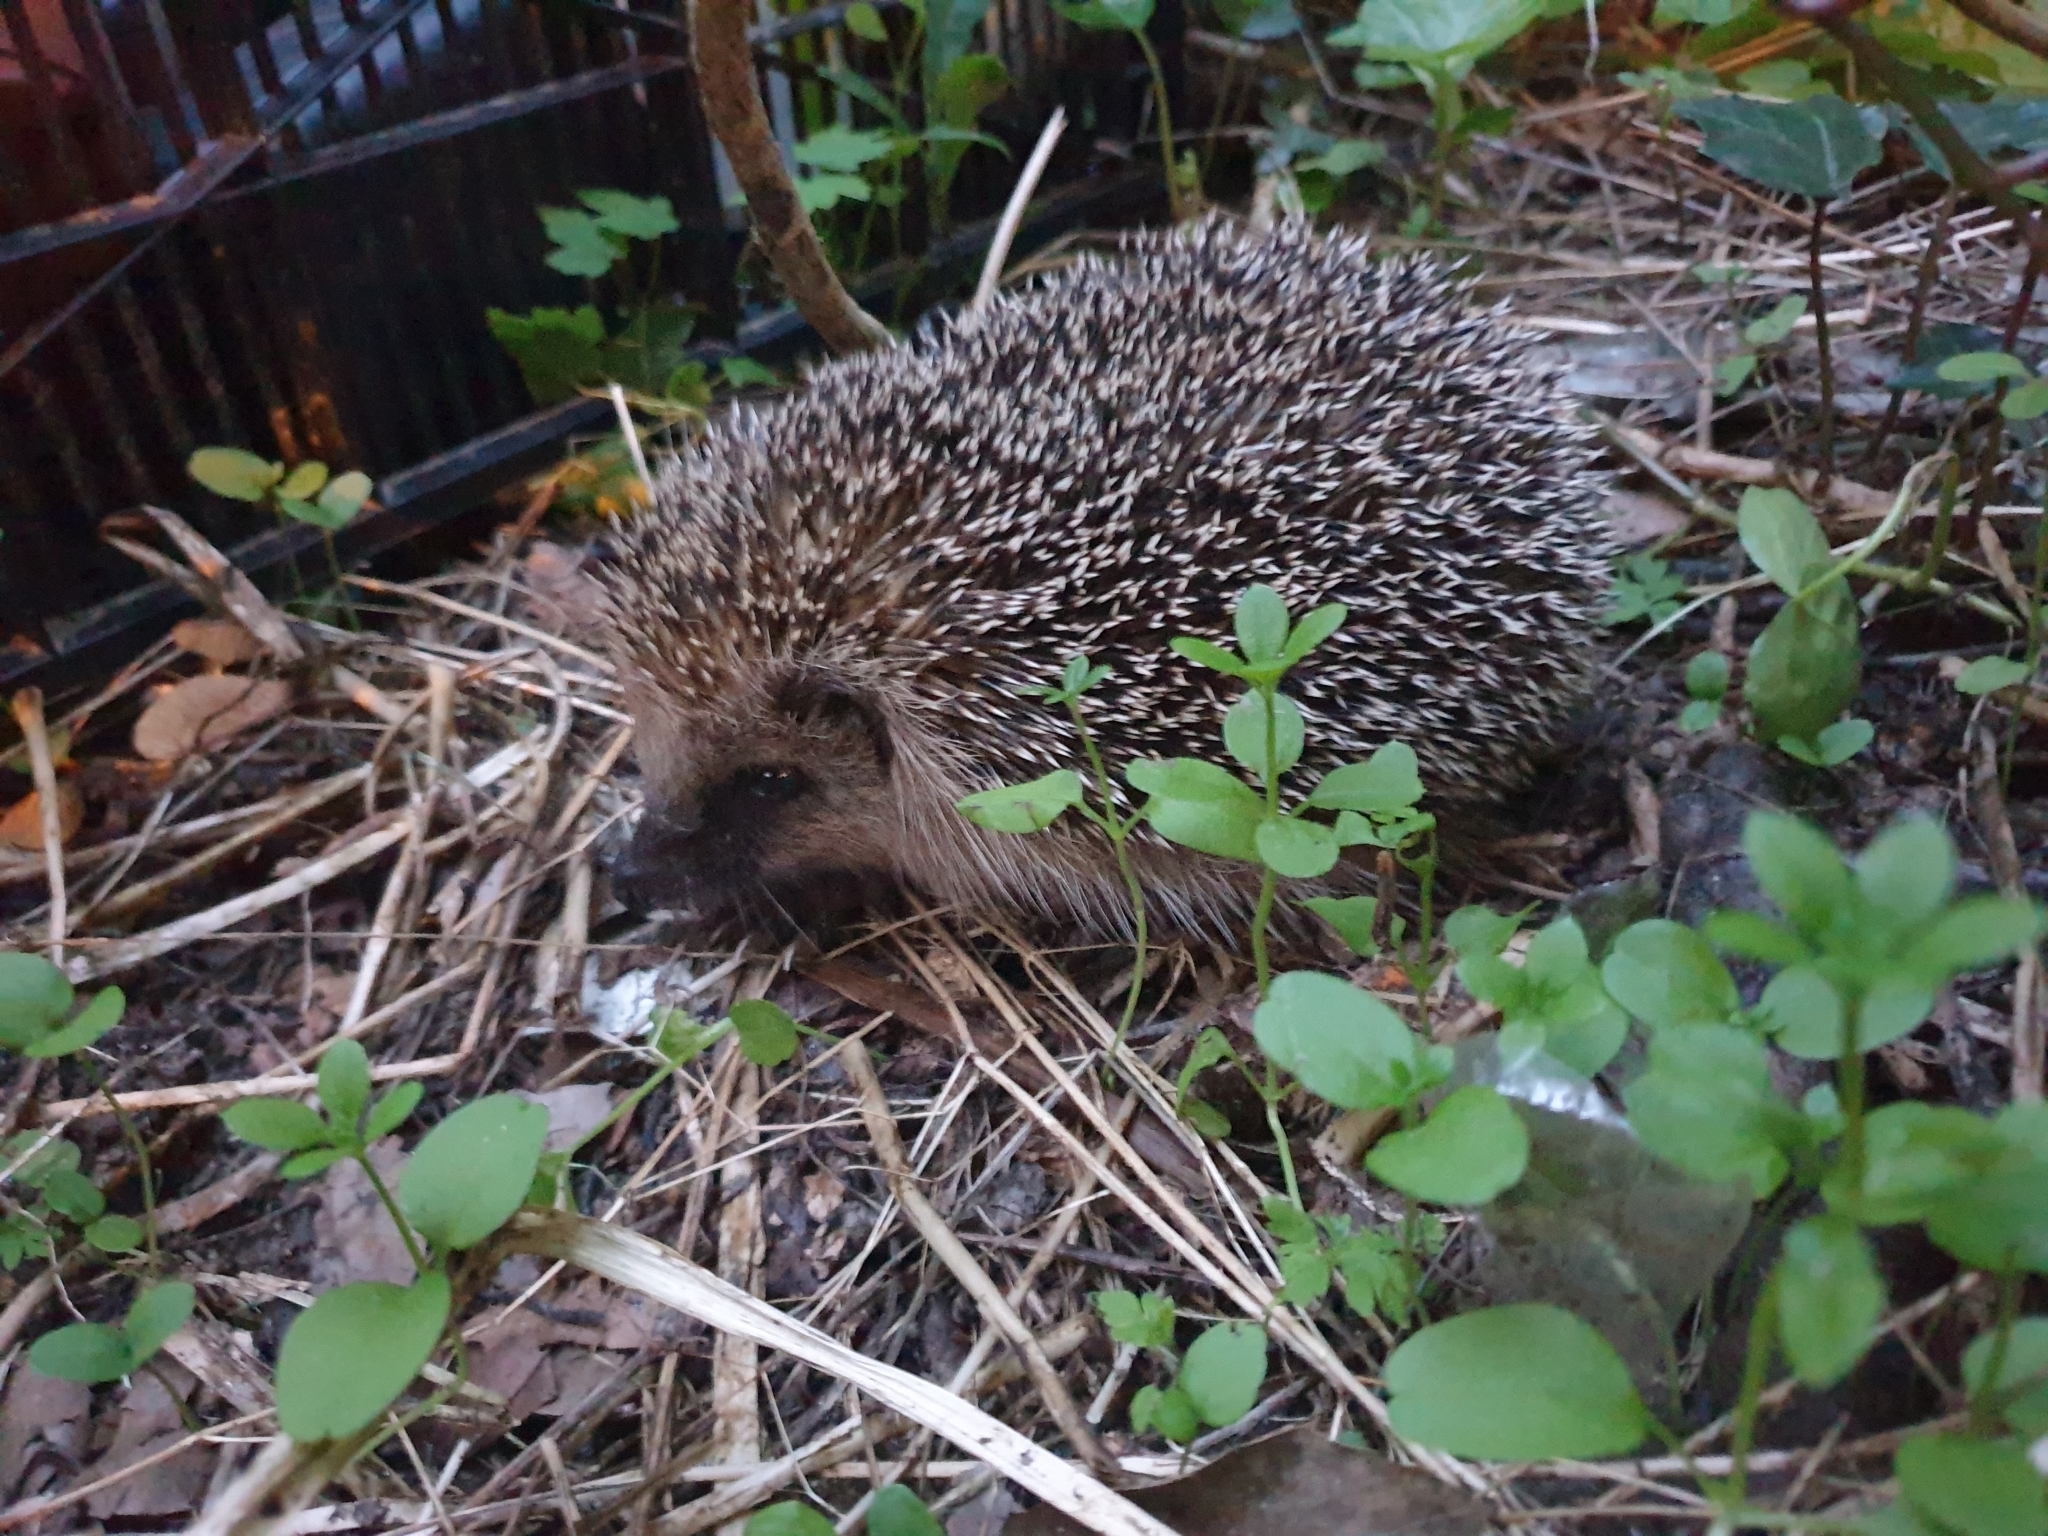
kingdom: Animalia
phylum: Chordata
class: Mammalia
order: Erinaceomorpha
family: Erinaceidae
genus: Erinaceus
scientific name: Erinaceus europaeus
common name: West european hedgehog
